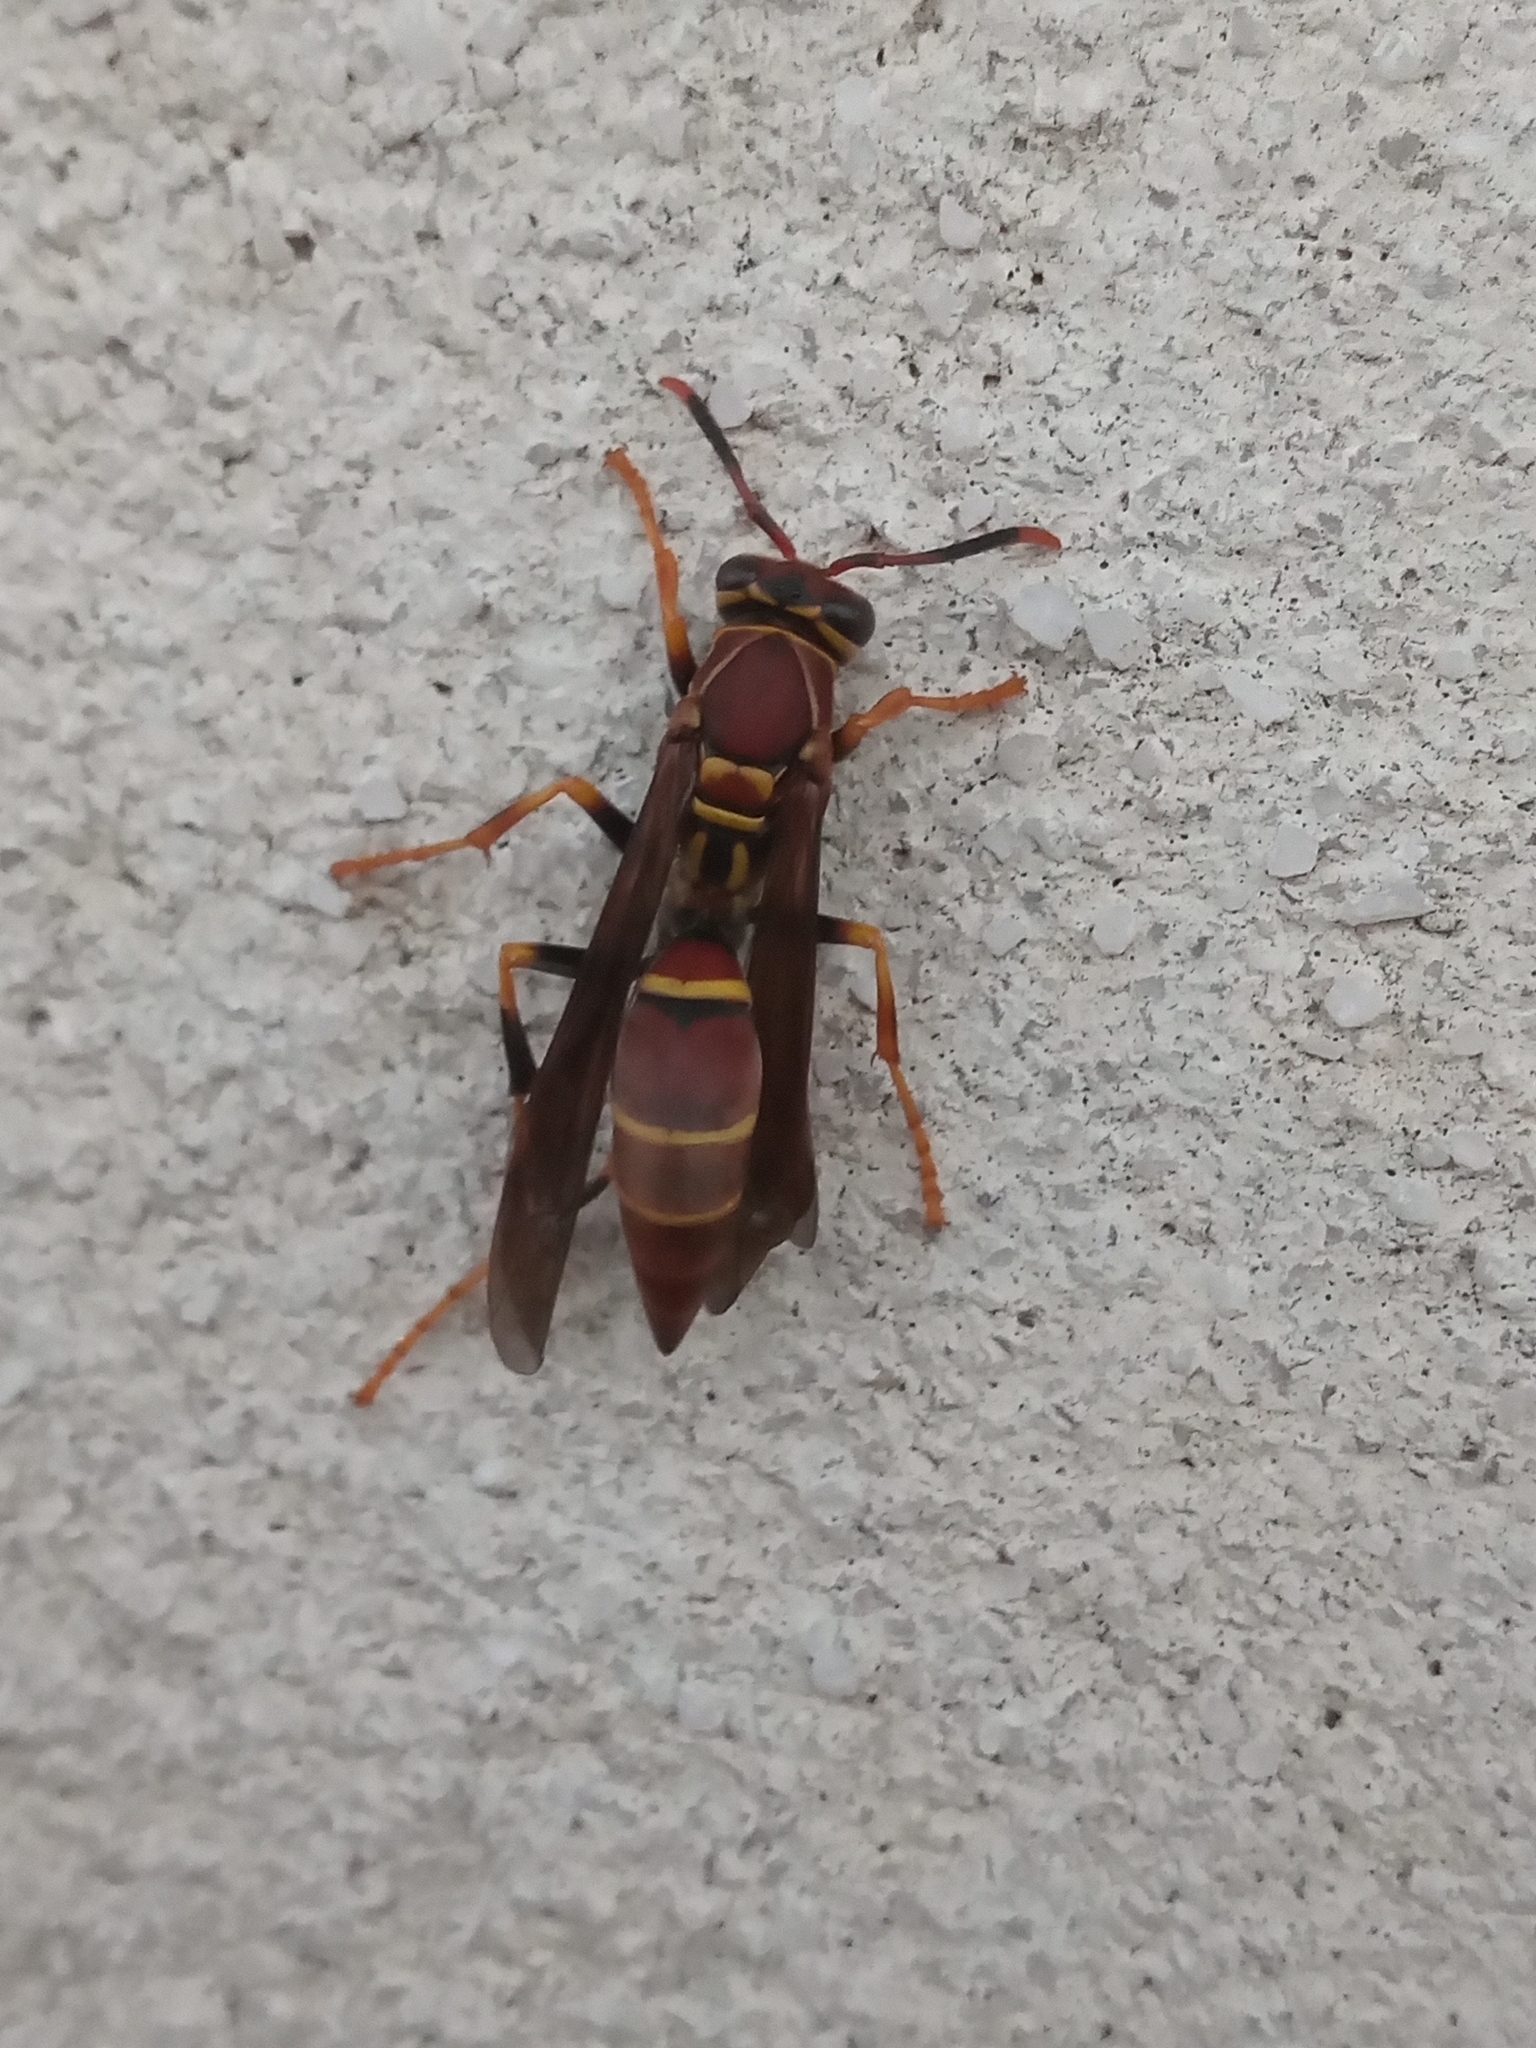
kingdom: Animalia
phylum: Arthropoda
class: Insecta
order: Hymenoptera
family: Eumenidae
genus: Polistes
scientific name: Polistes instabilis
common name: Unstable paper wasp
